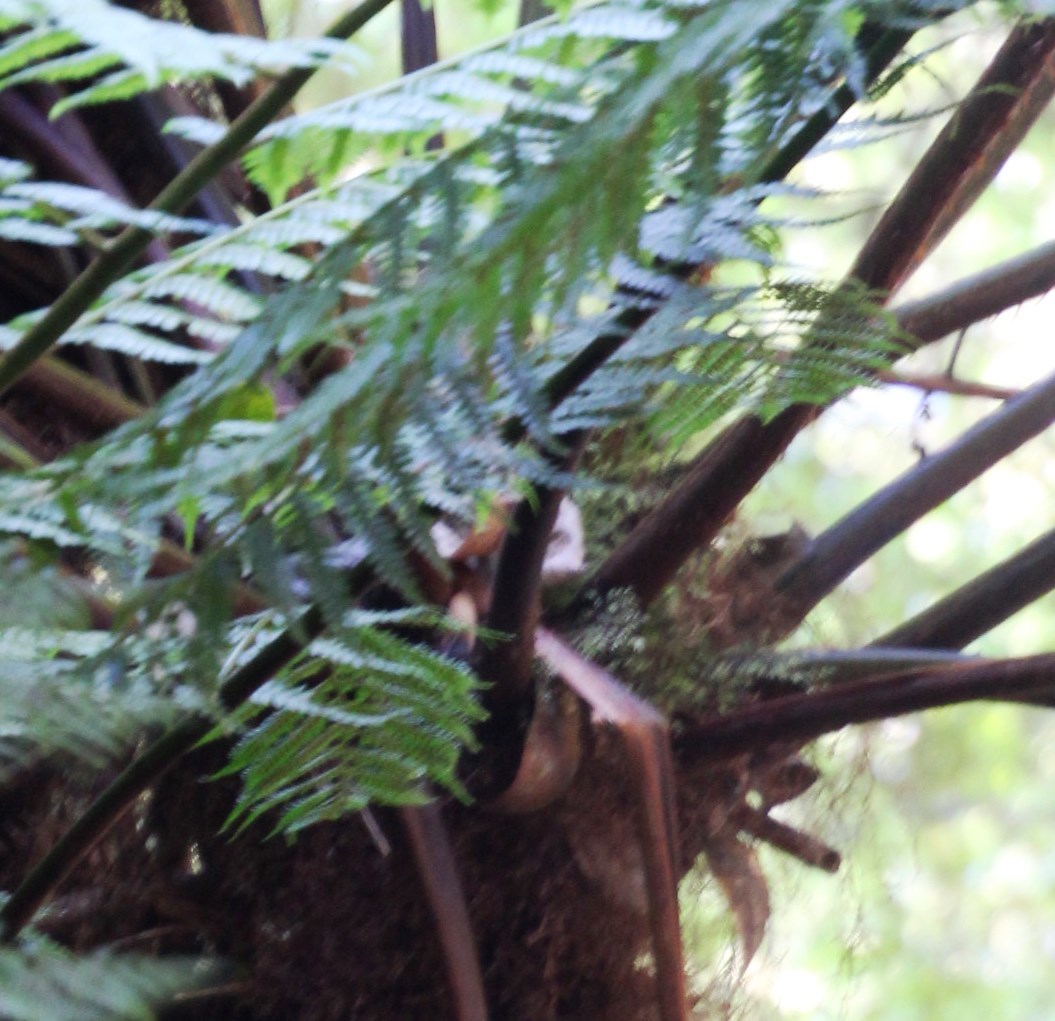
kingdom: Plantae
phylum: Tracheophyta
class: Polypodiopsida
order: Cyatheales
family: Cyatheaceae
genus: Gymnosphaera
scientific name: Gymnosphaera capensis
